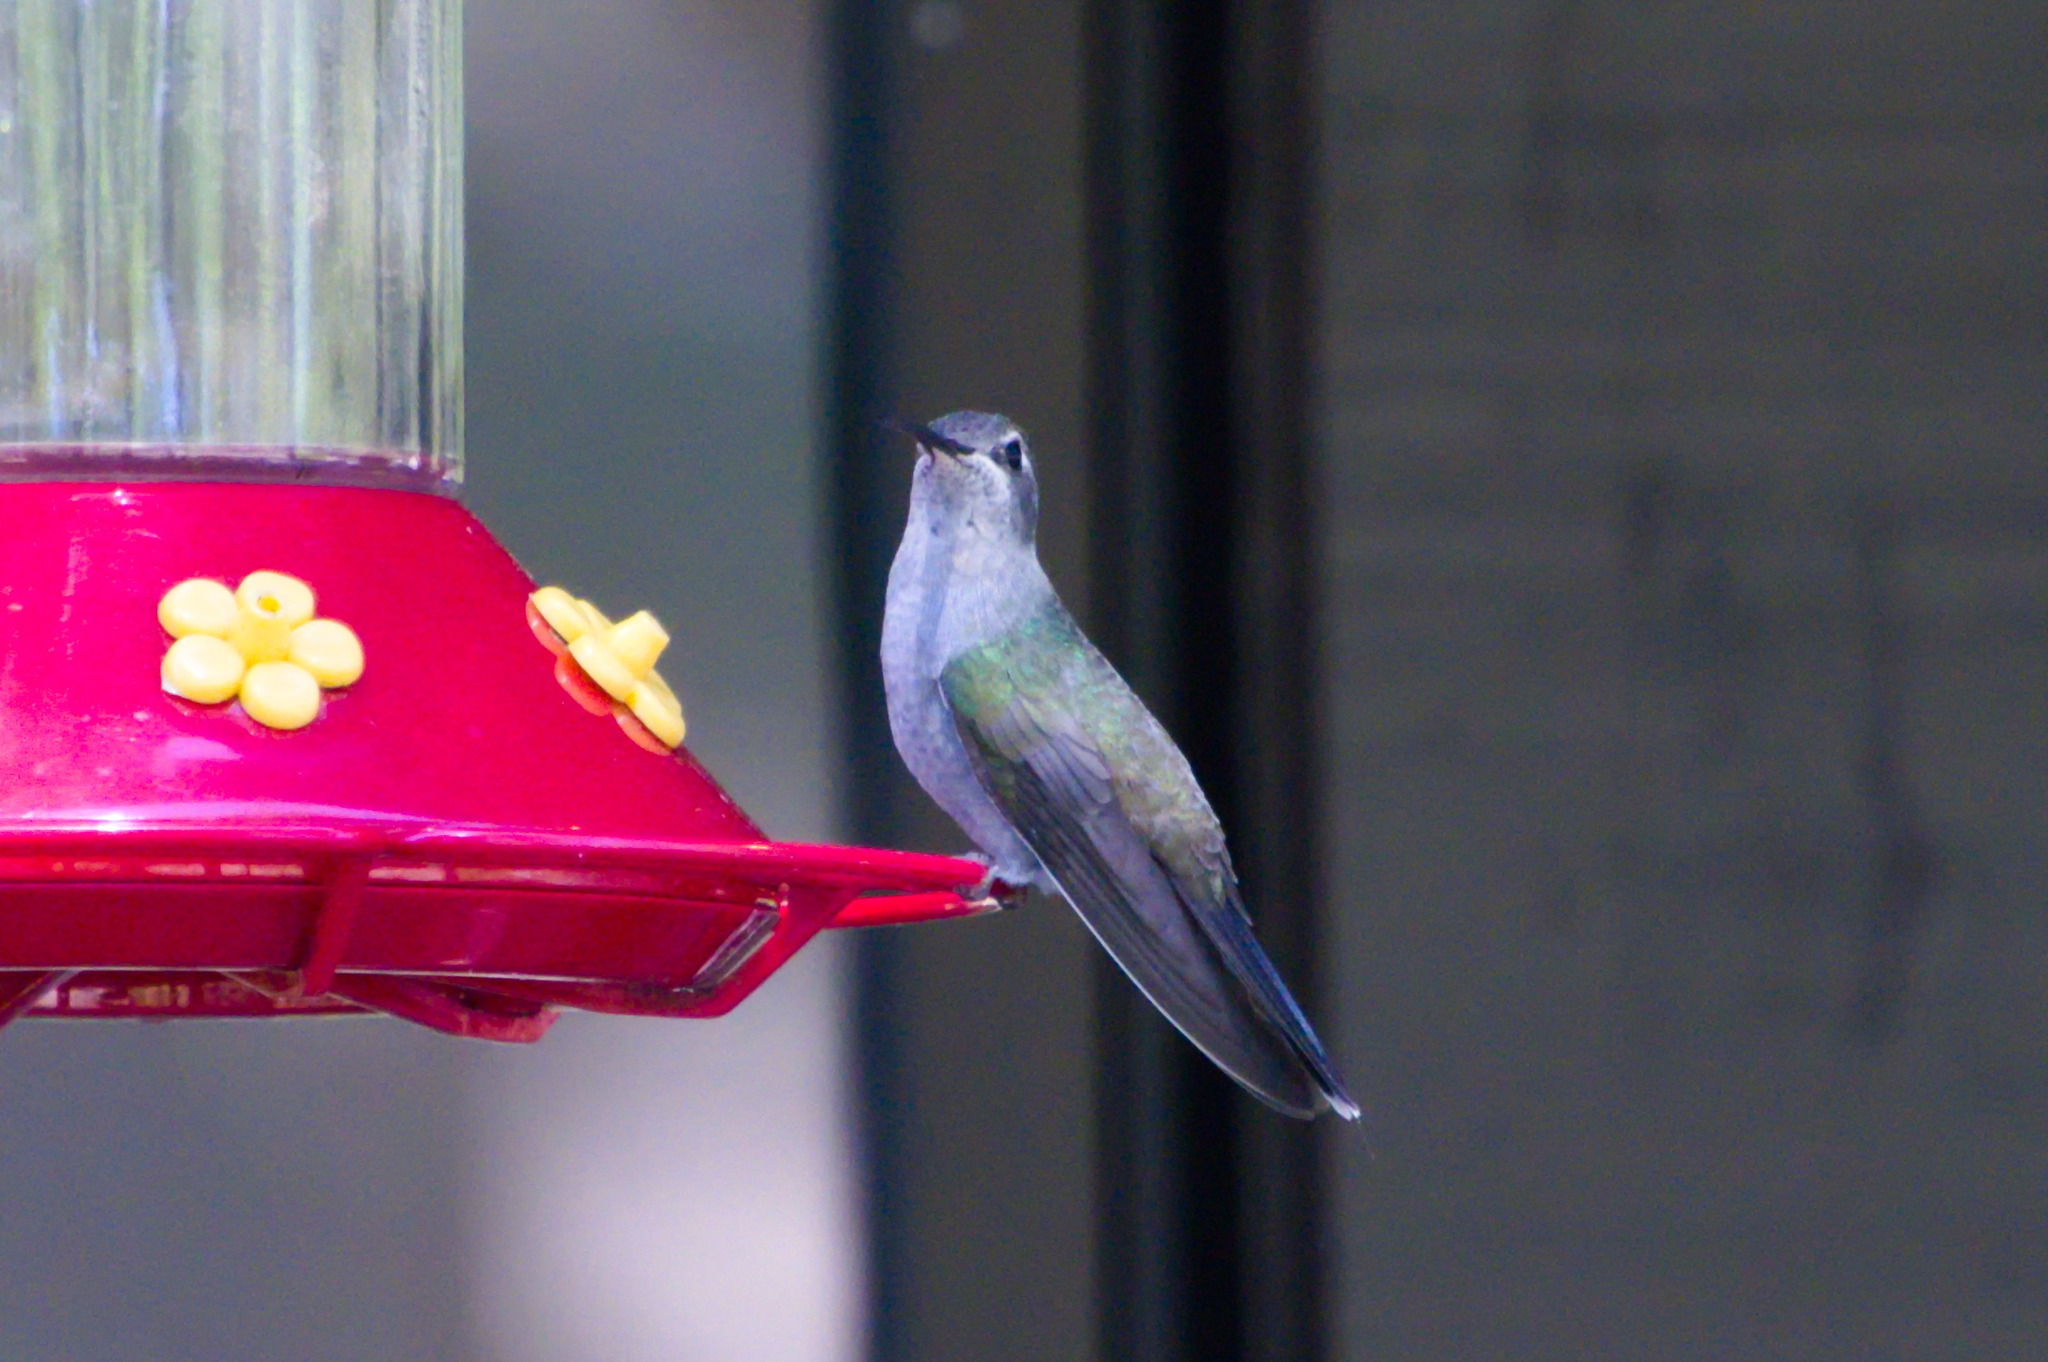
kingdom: Animalia
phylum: Chordata
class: Aves
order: Apodiformes
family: Trochilidae
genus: Lampornis
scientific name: Lampornis clemenciae
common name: Blue-throated mountaingem
